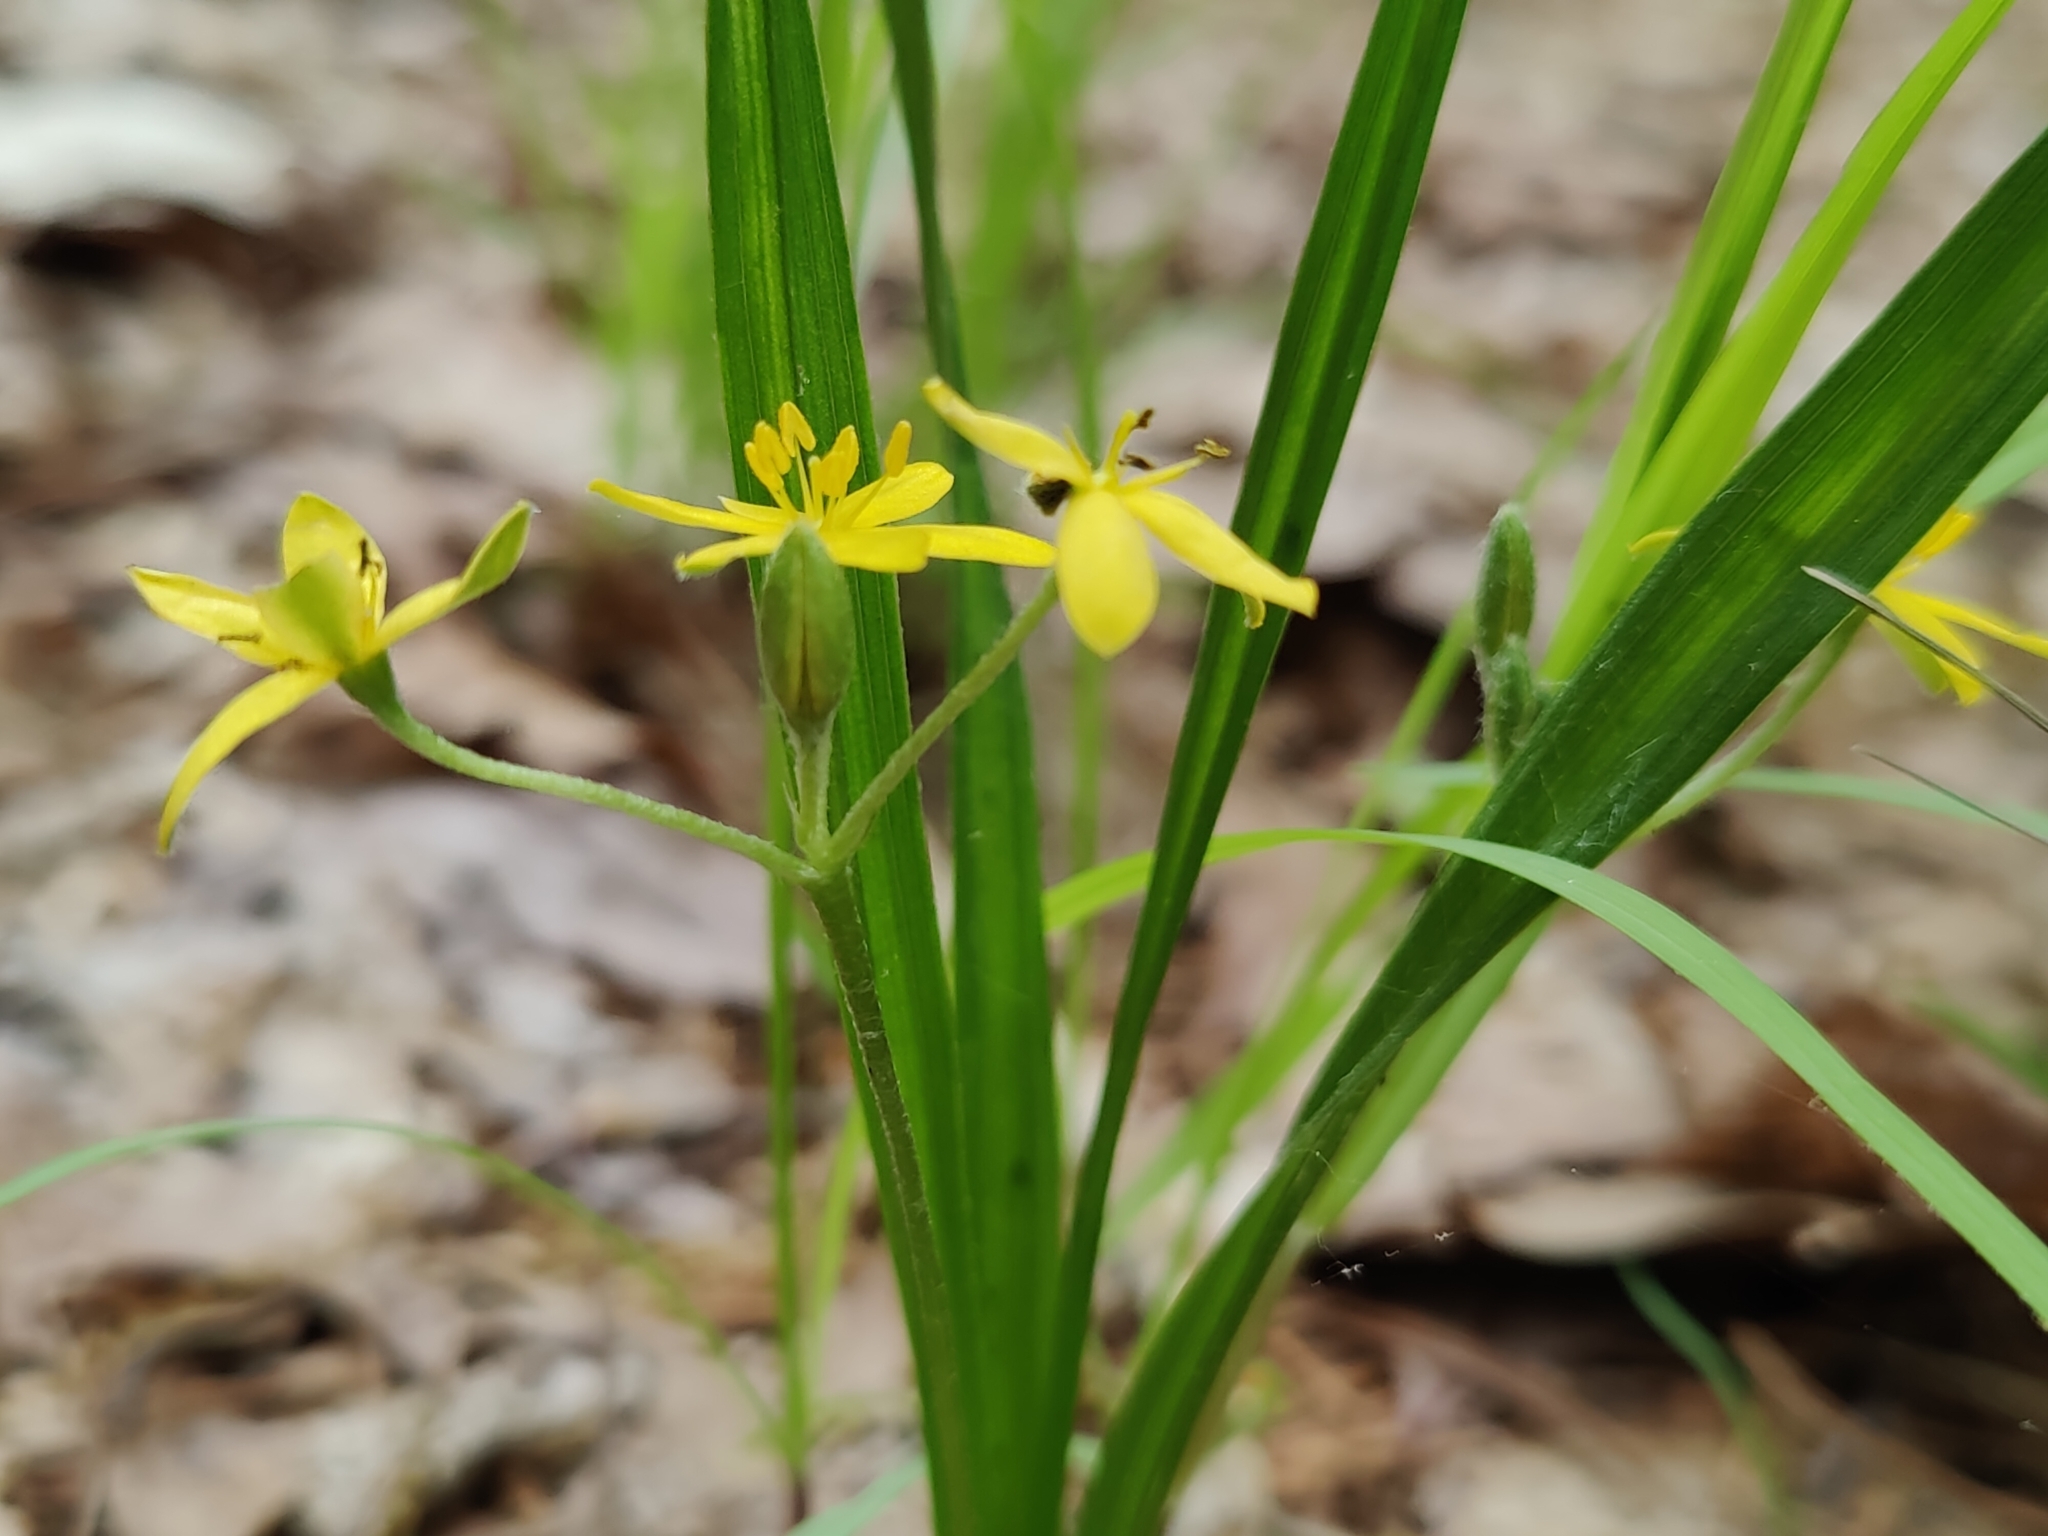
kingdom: Plantae
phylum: Tracheophyta
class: Liliopsida
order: Asparagales
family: Hypoxidaceae
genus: Hypoxis
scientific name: Hypoxis hirsuta
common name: Common goldstar
